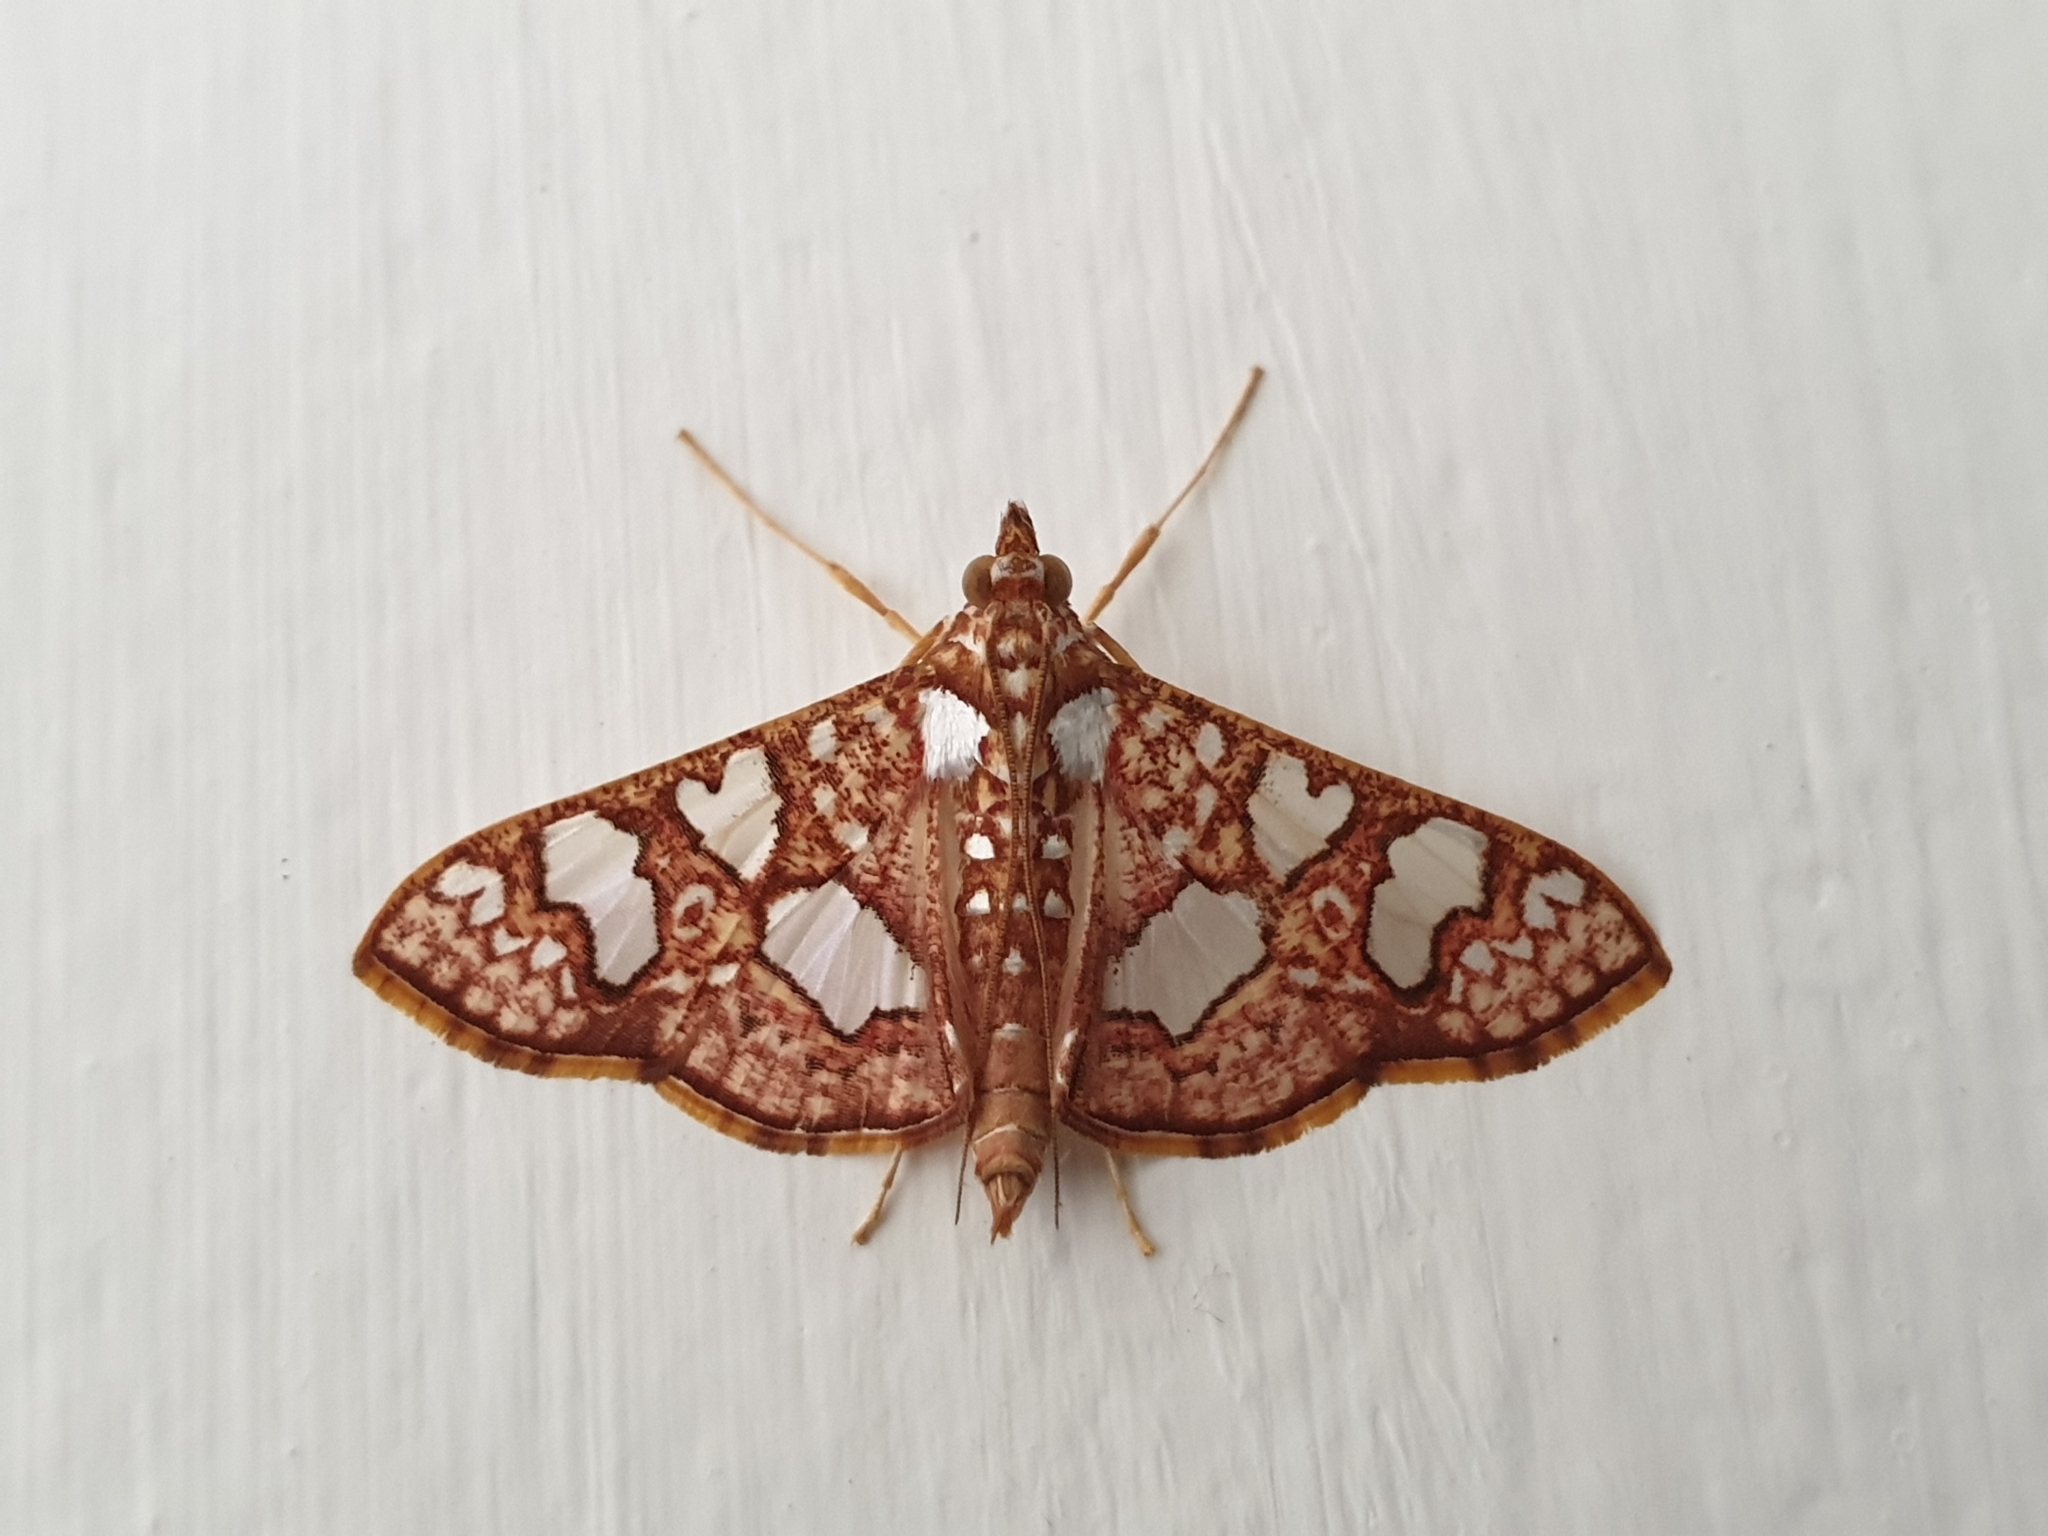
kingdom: Animalia
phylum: Arthropoda
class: Insecta
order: Lepidoptera
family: Crambidae
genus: Glyphodes
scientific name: Glyphodes canthusalis
